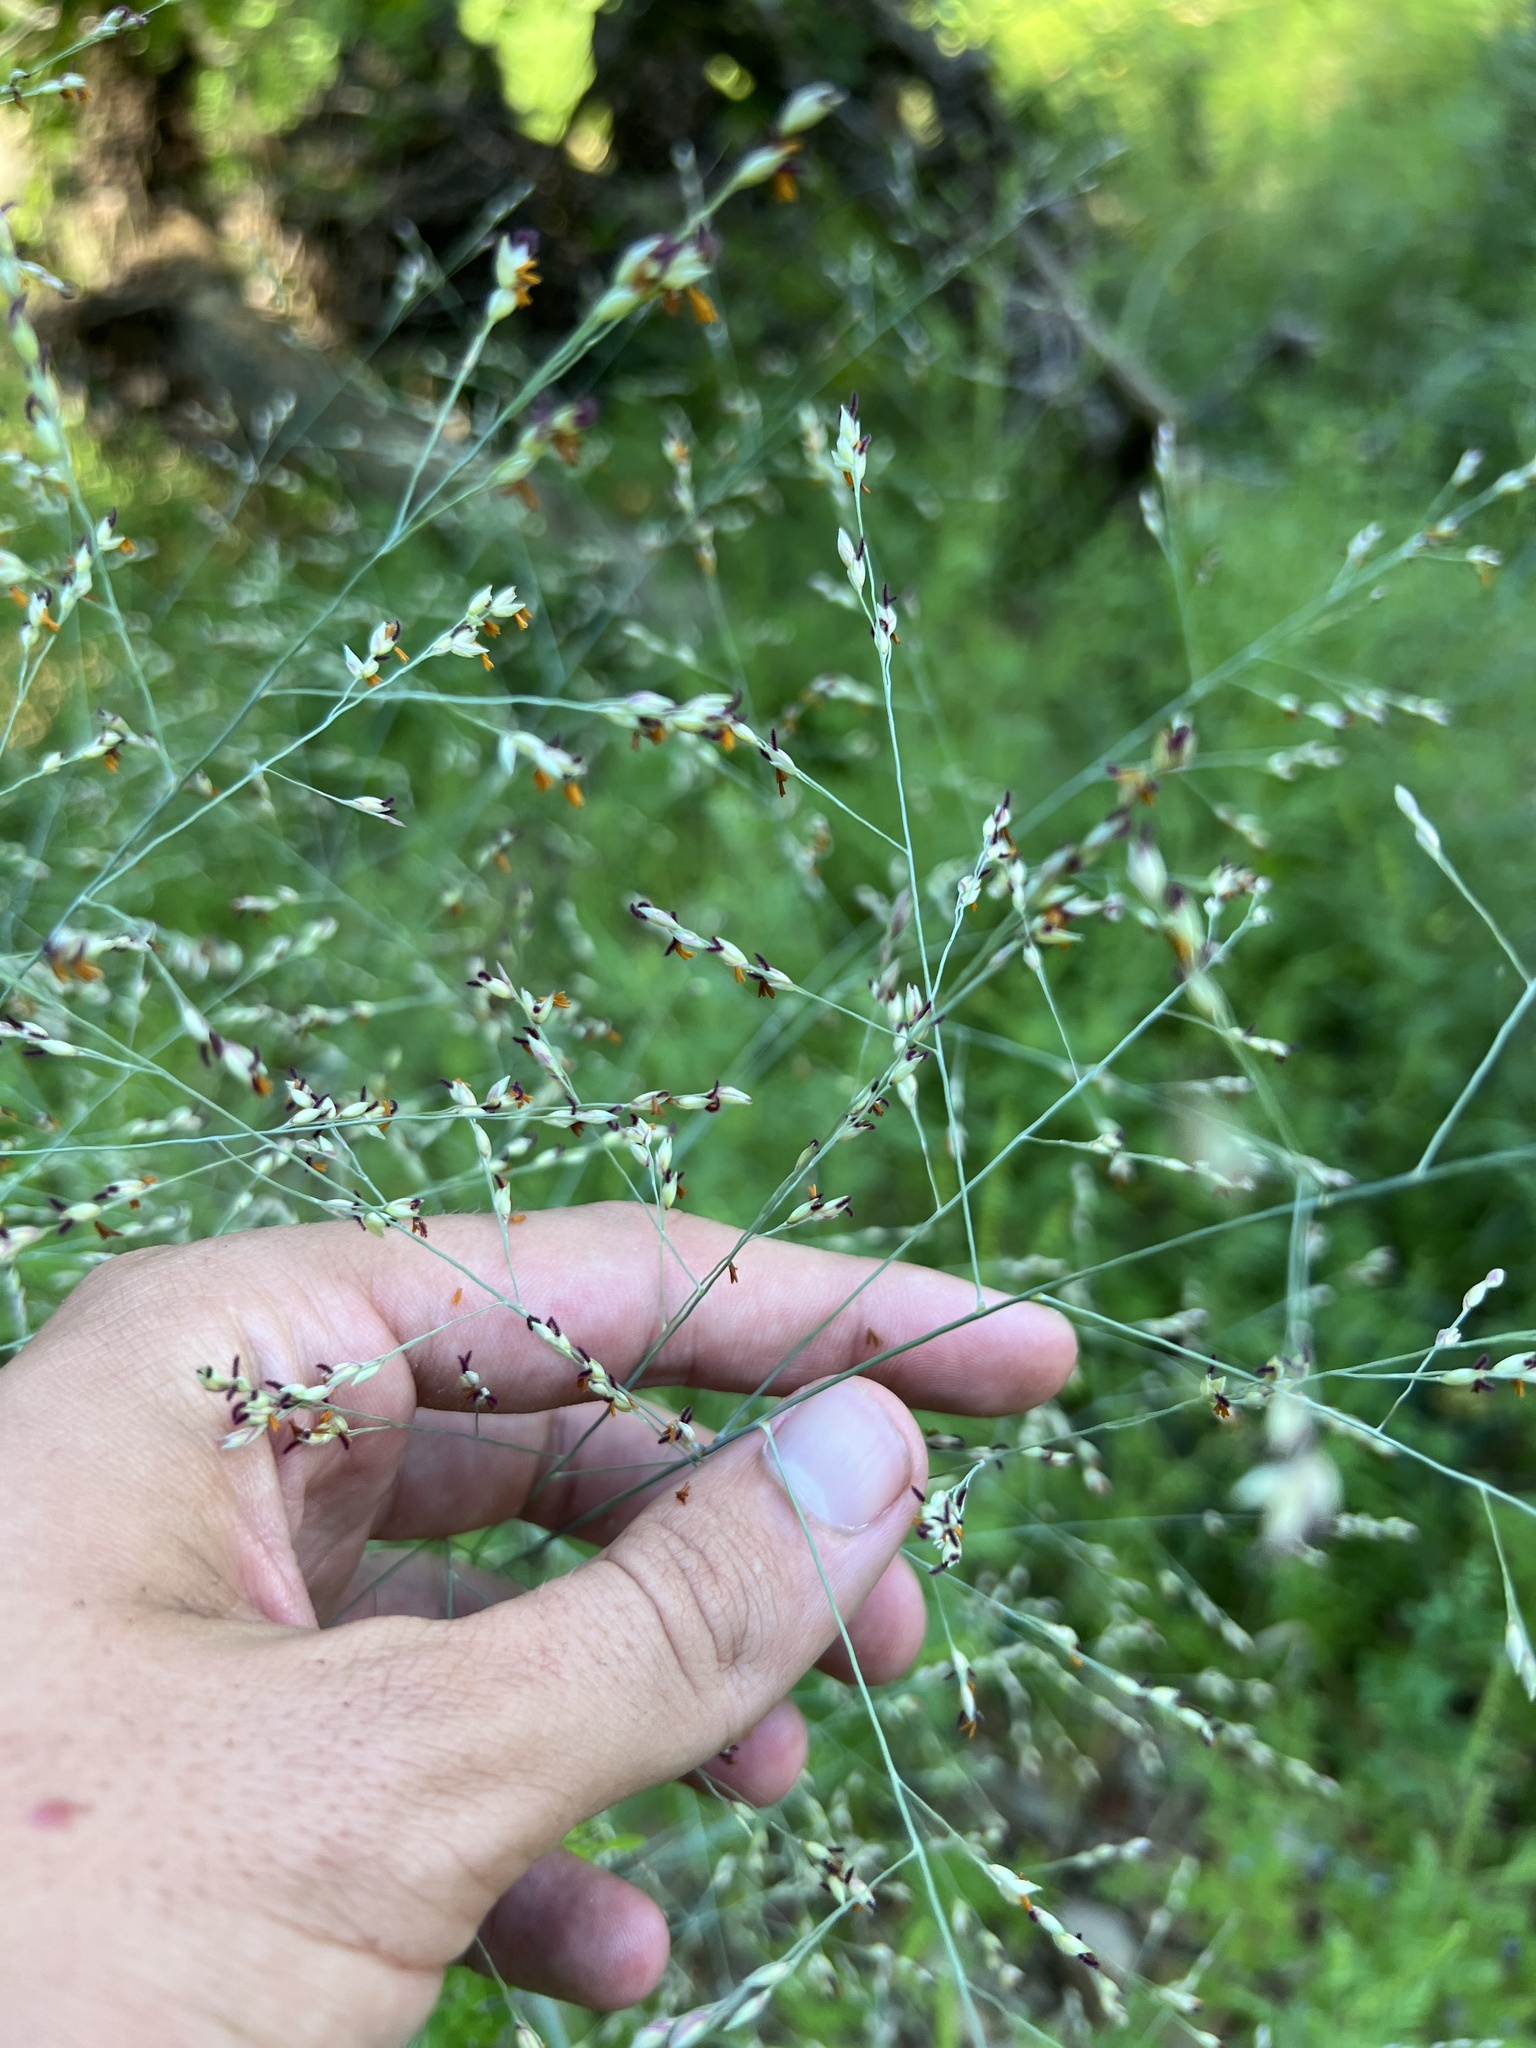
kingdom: Plantae
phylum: Tracheophyta
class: Liliopsida
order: Poales
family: Poaceae
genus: Panicum
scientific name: Panicum virgatum
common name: Switchgrass
